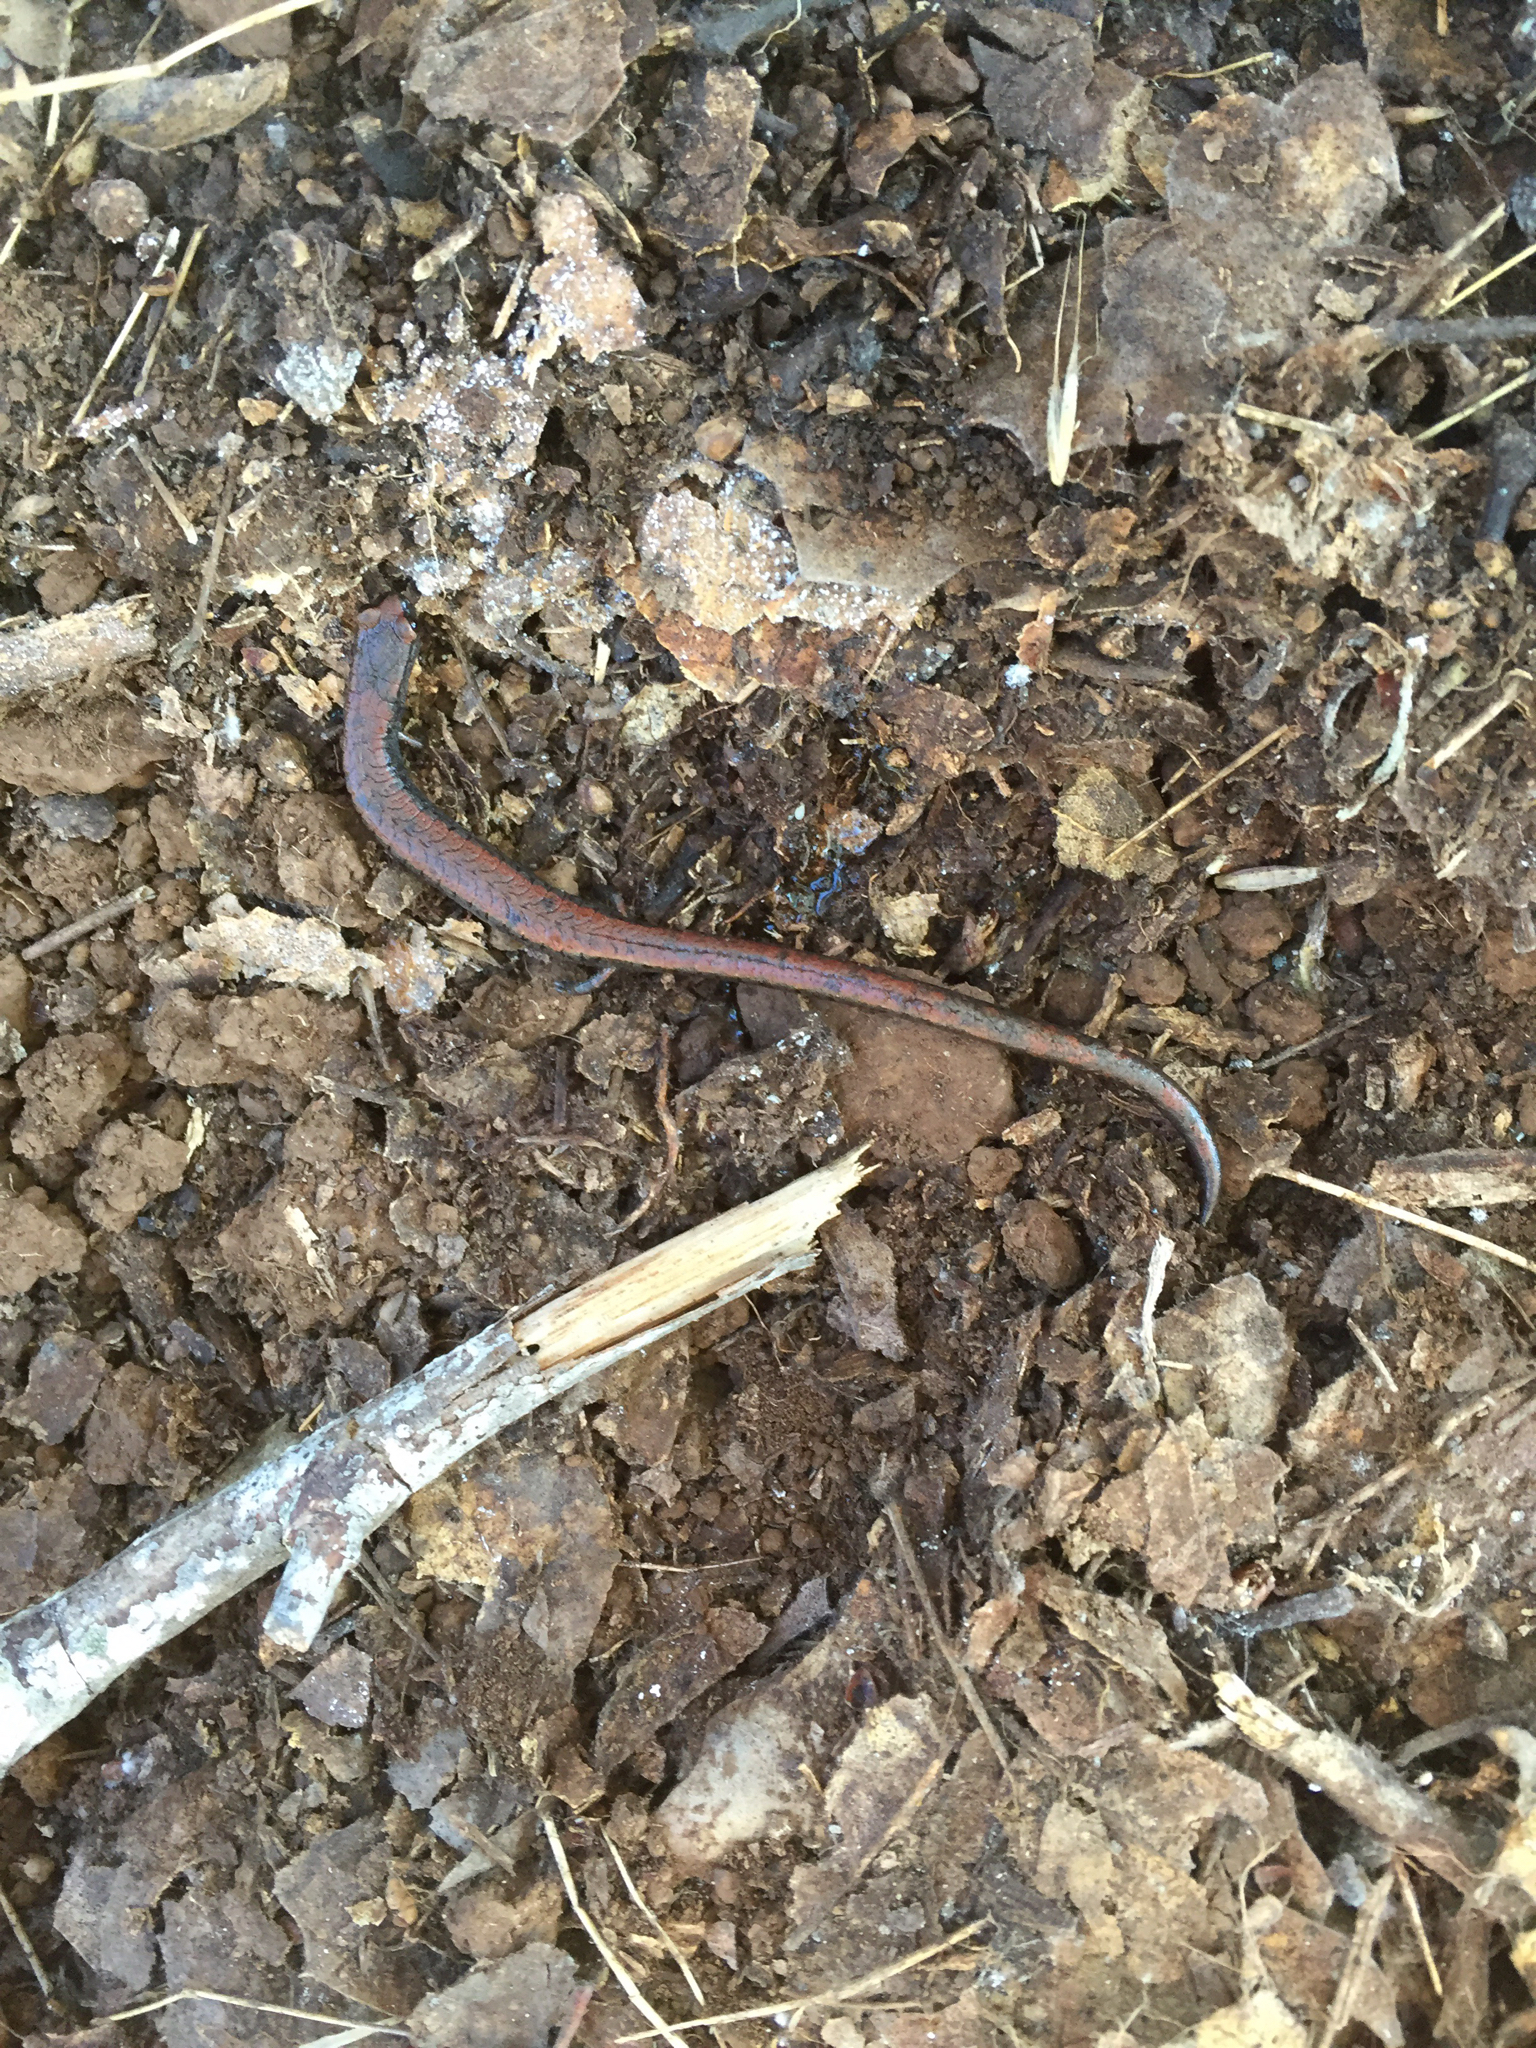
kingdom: Animalia
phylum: Chordata
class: Amphibia
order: Caudata
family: Plethodontidae
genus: Batrachoseps
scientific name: Batrachoseps attenuatus
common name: California slender salamander
